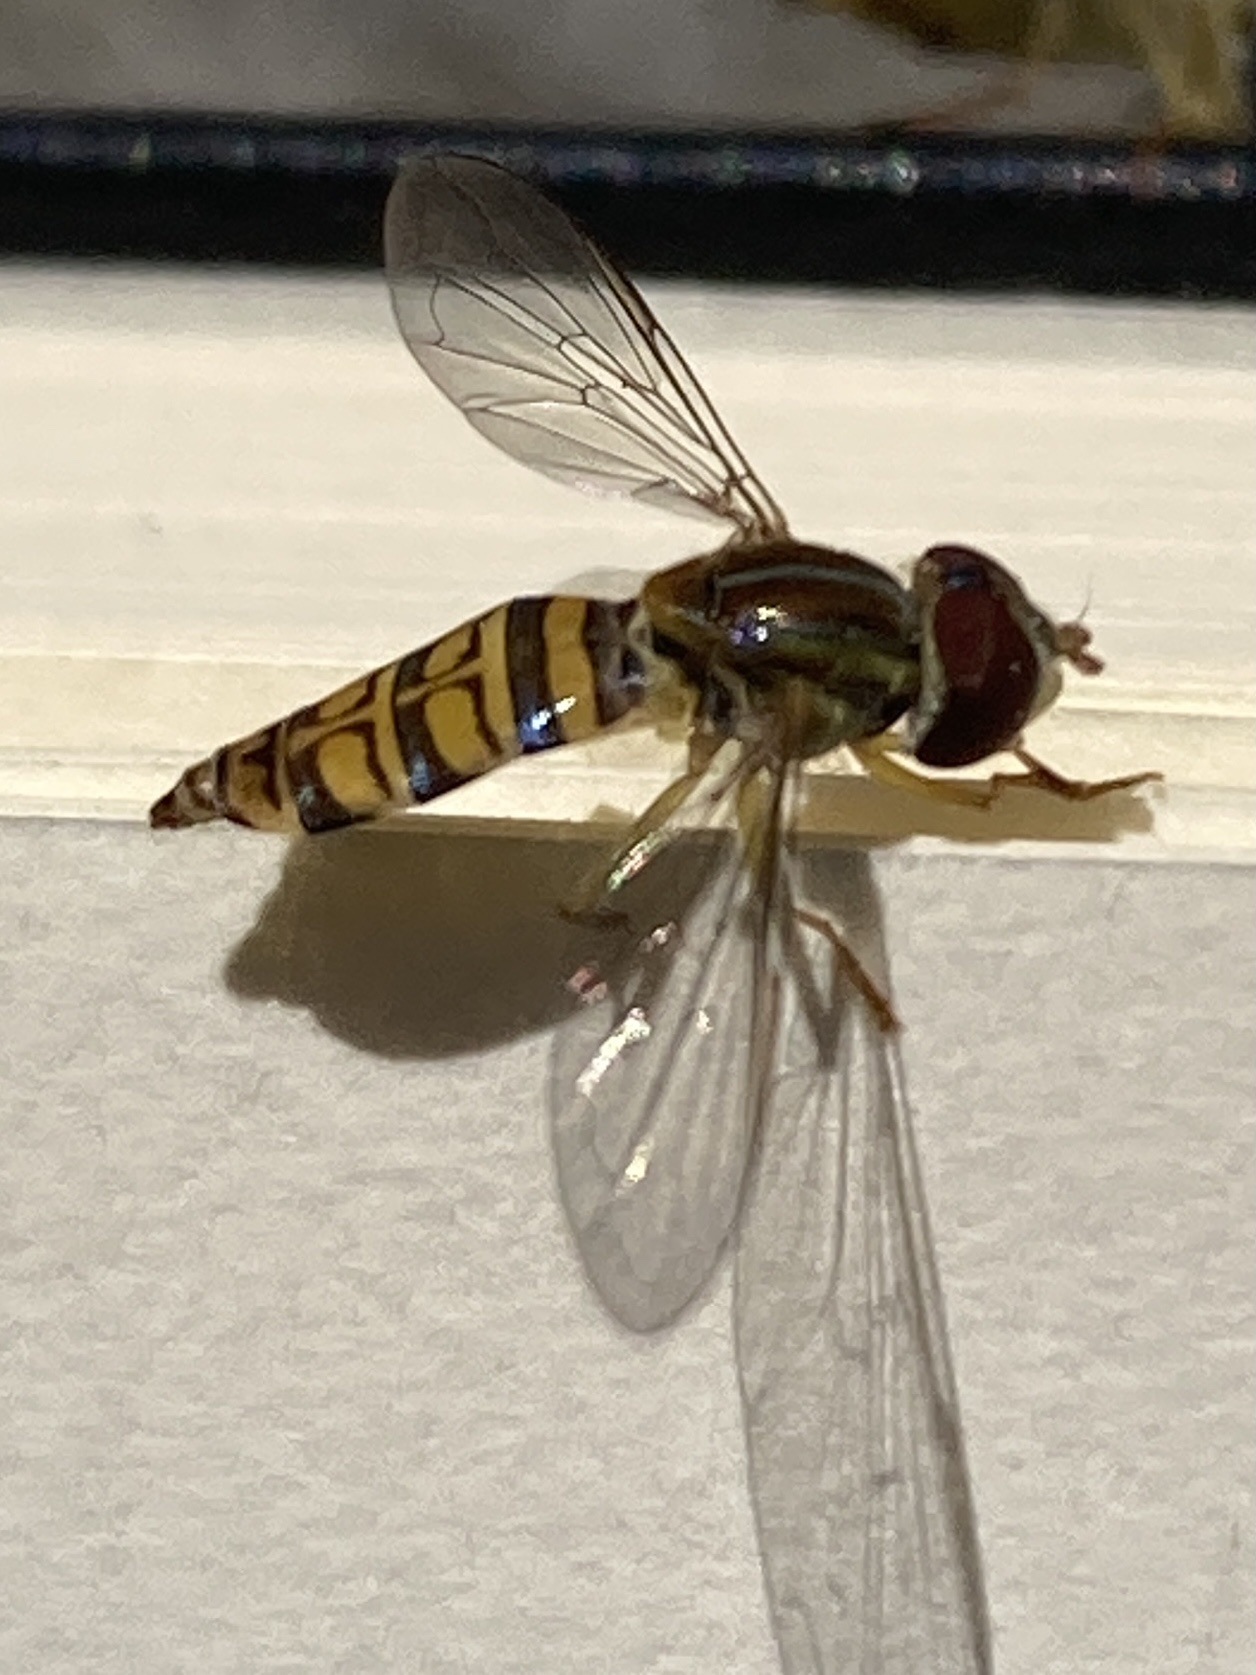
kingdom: Animalia
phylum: Arthropoda
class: Insecta
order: Diptera
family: Syrphidae
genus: Toxomerus
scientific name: Toxomerus politus
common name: Maize calligrapher
